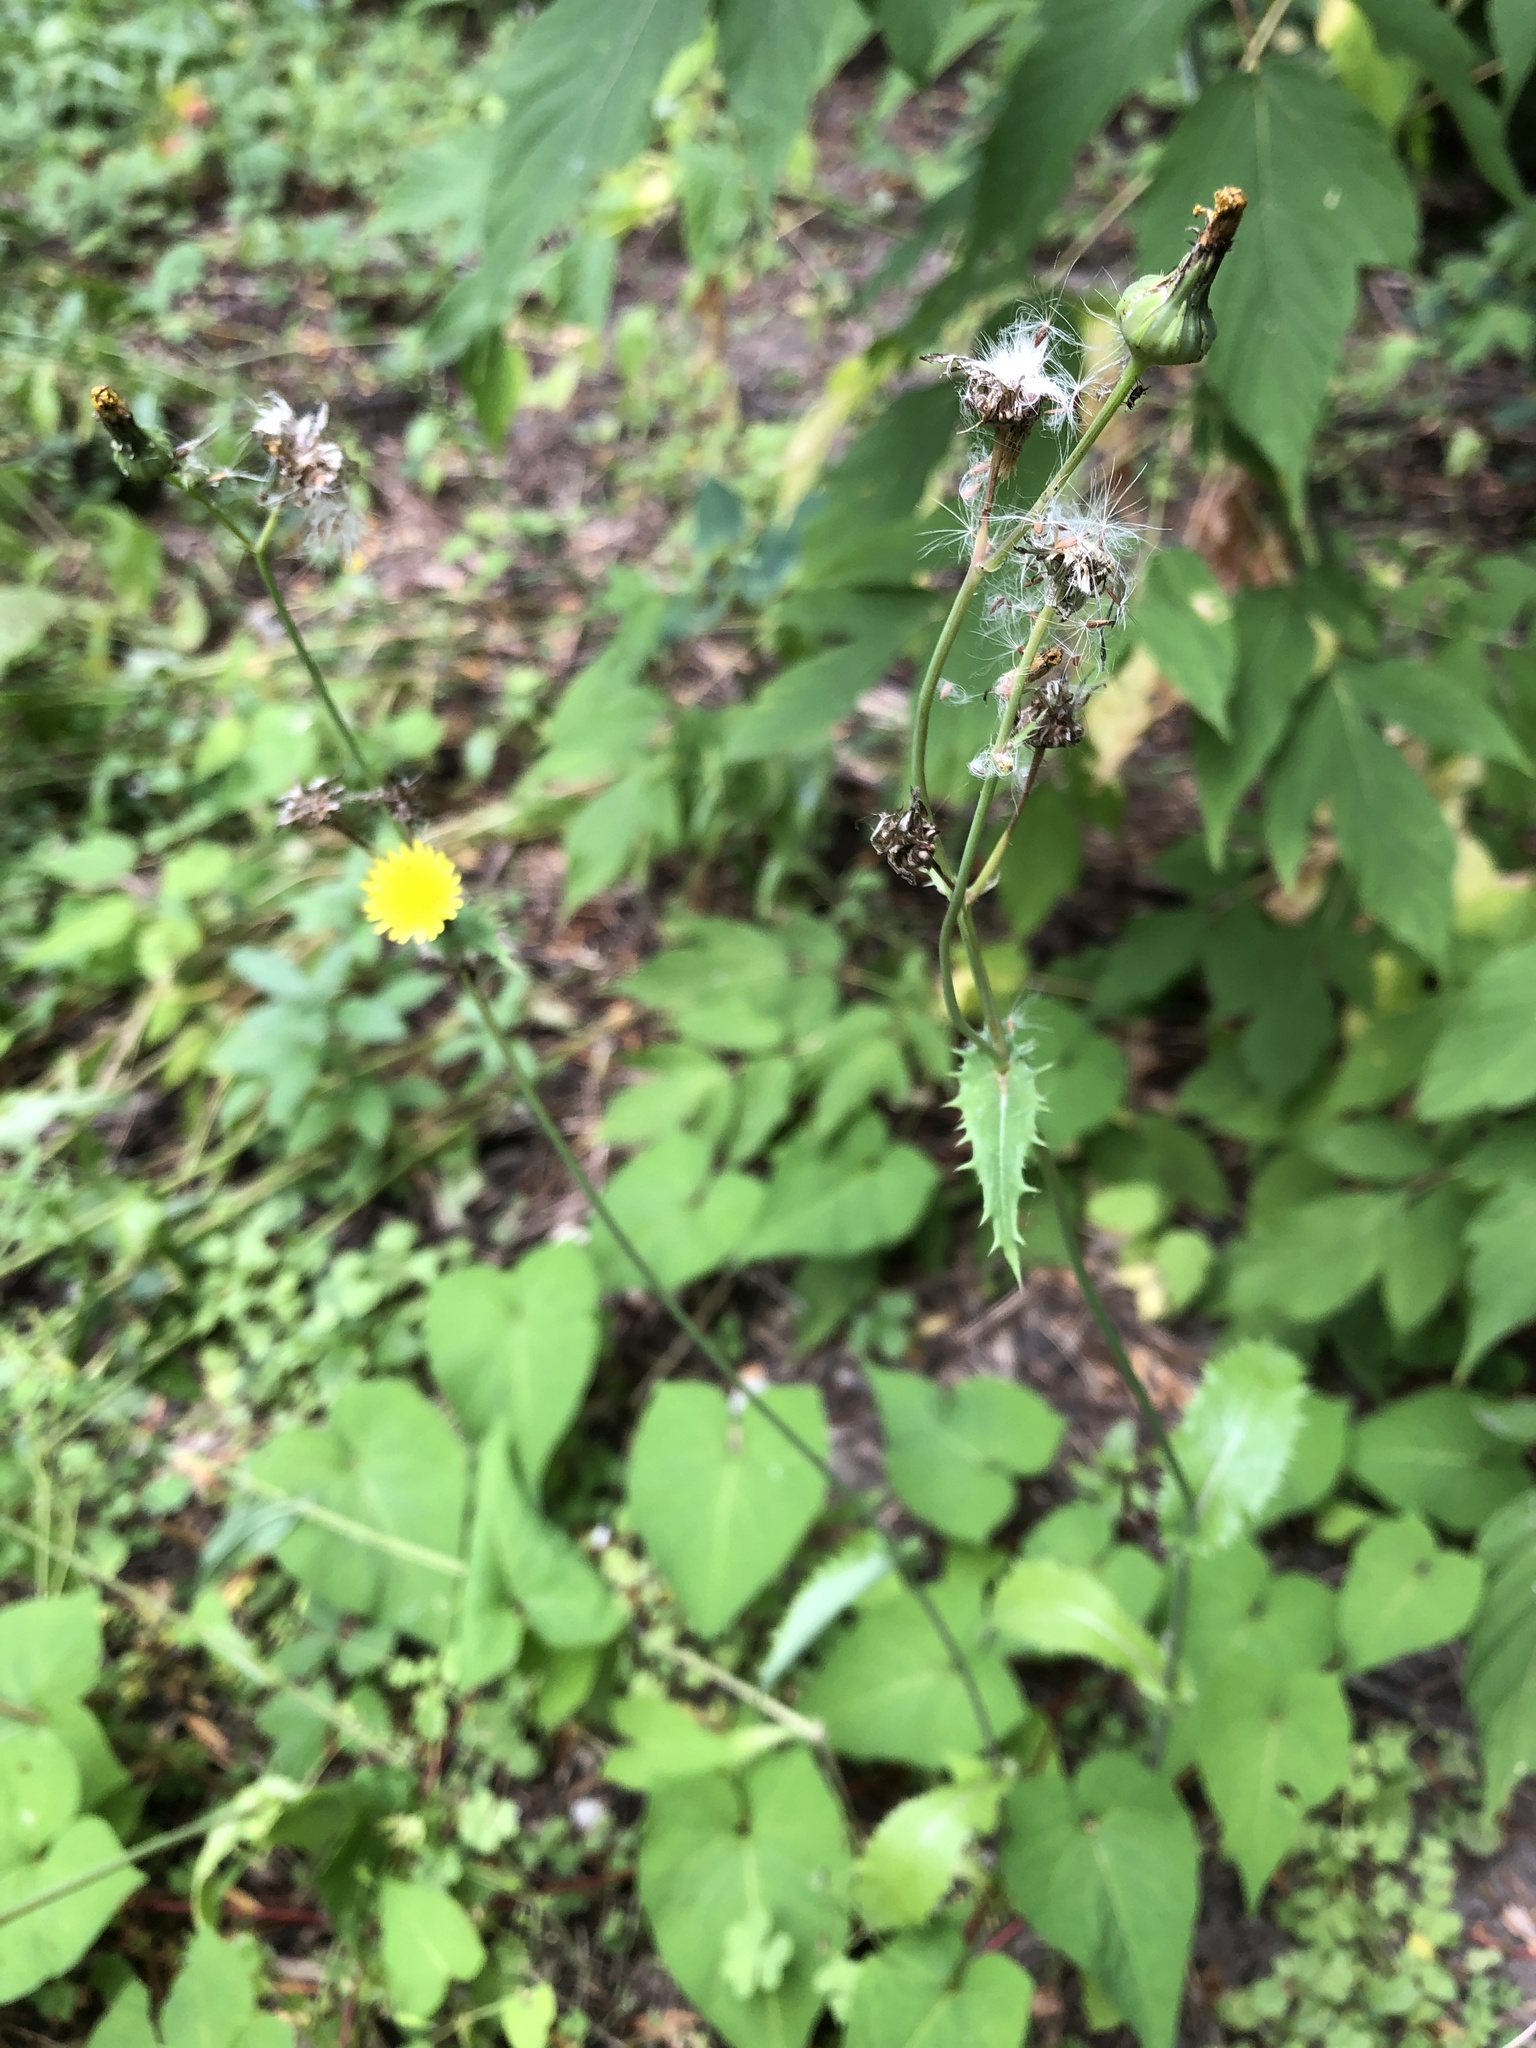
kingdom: Plantae
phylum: Tracheophyta
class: Magnoliopsida
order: Asterales
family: Asteraceae
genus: Sonchus
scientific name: Sonchus asper
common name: Prickly sow-thistle
